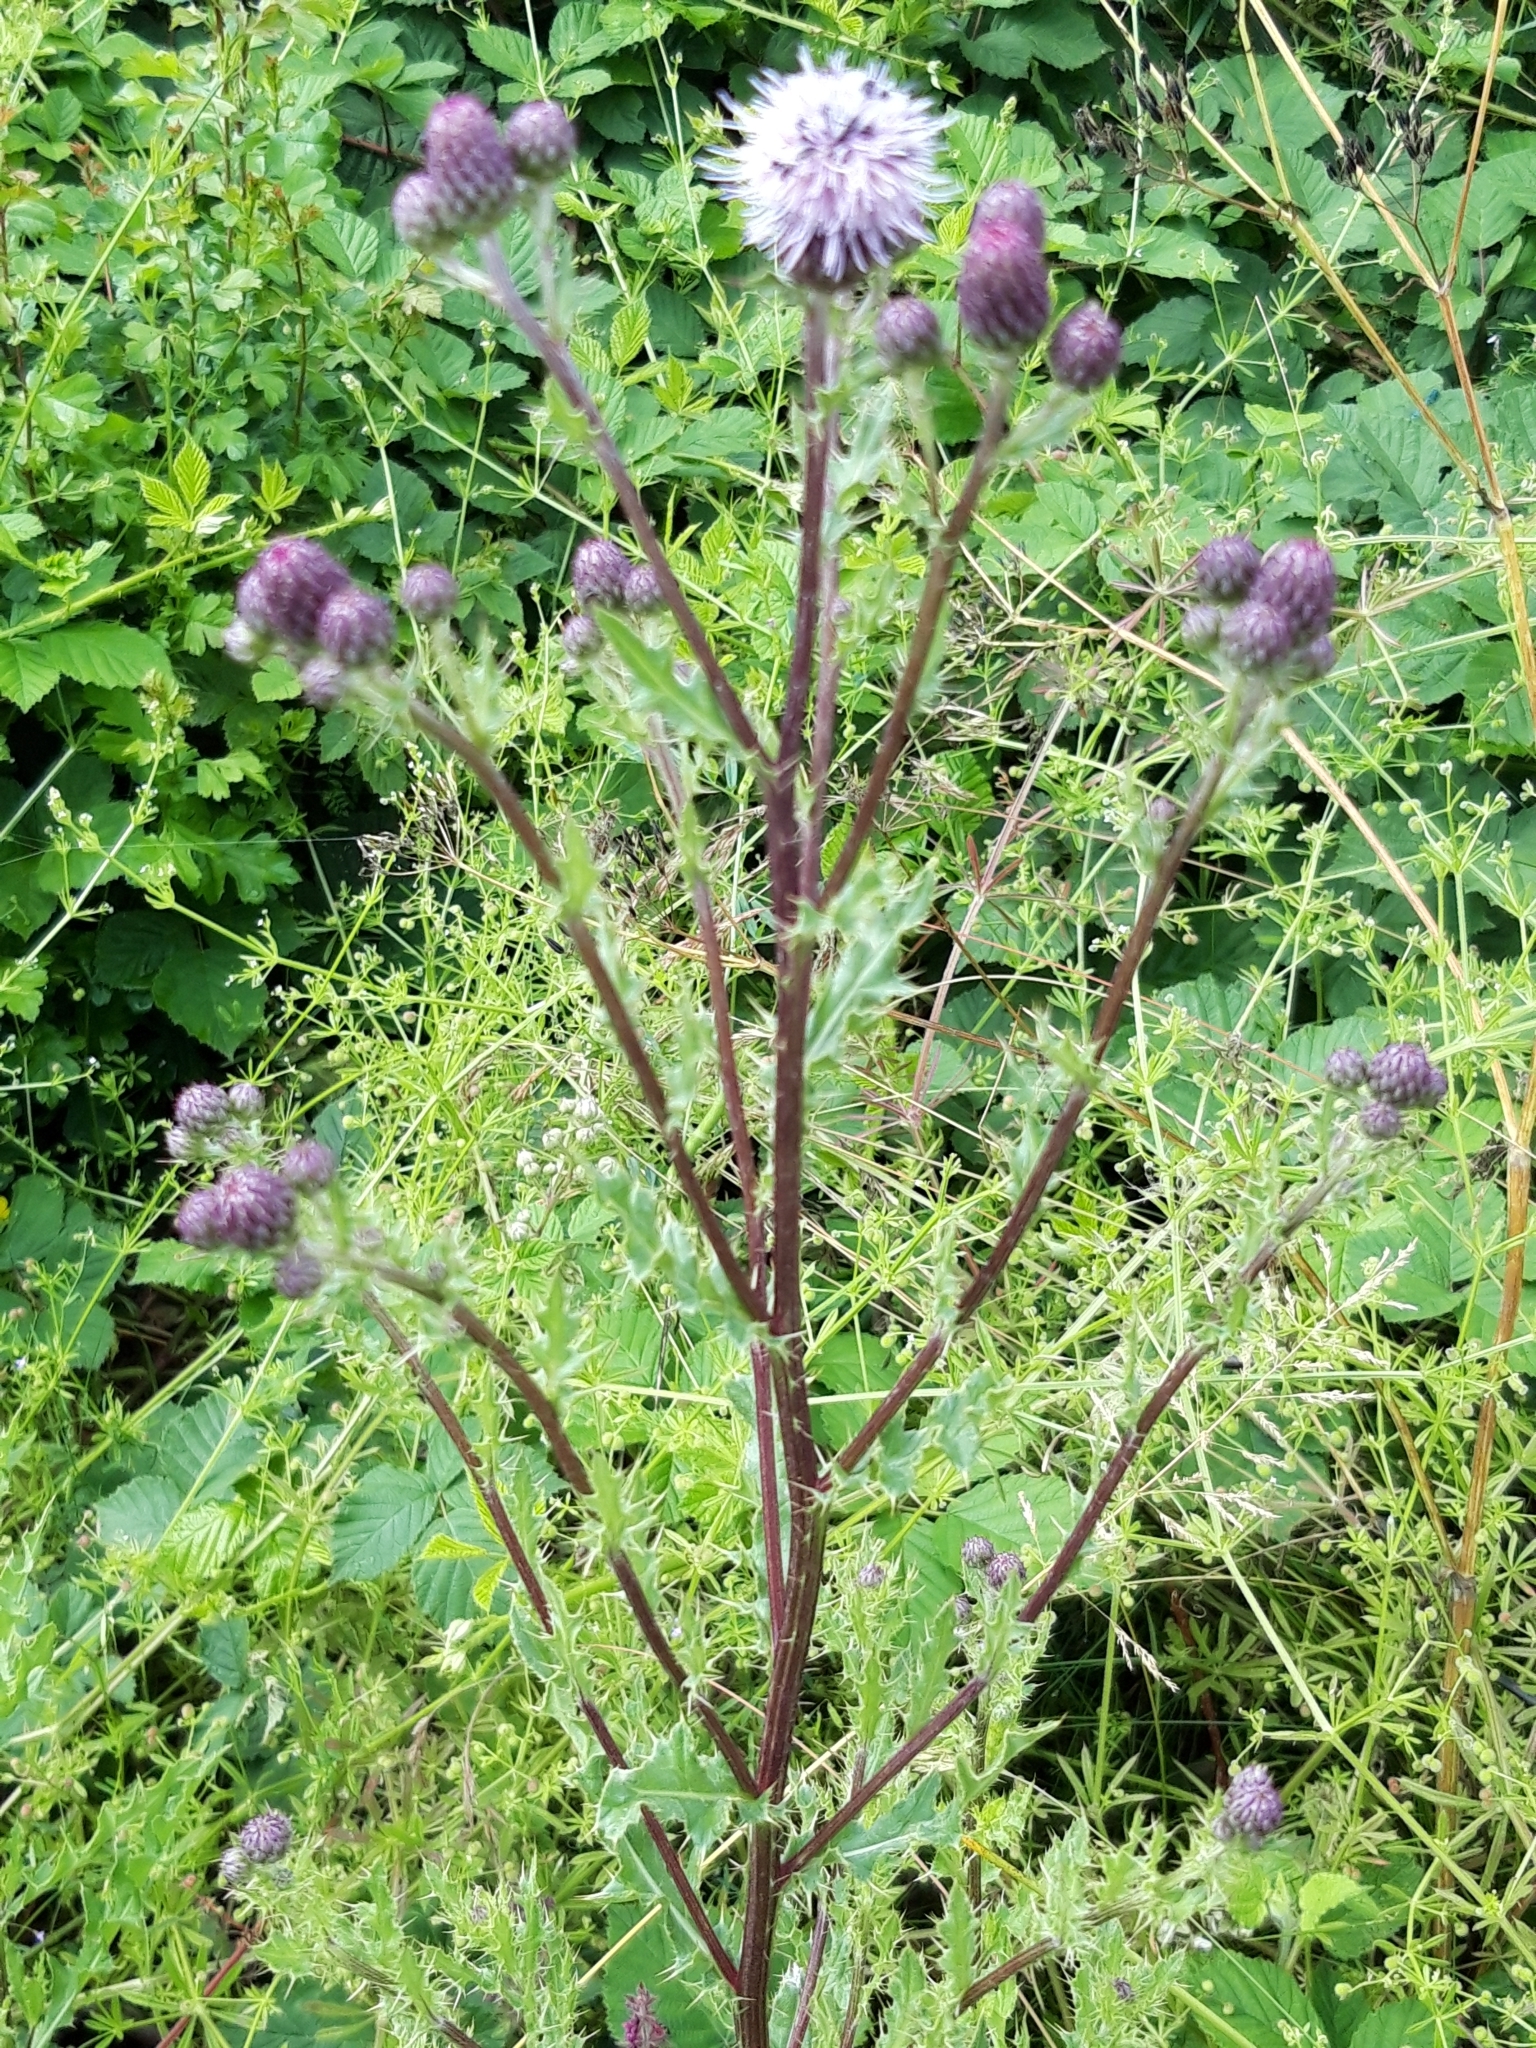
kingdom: Plantae
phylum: Tracheophyta
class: Magnoliopsida
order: Asterales
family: Asteraceae
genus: Cirsium
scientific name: Cirsium arvense
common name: Creeping thistle
